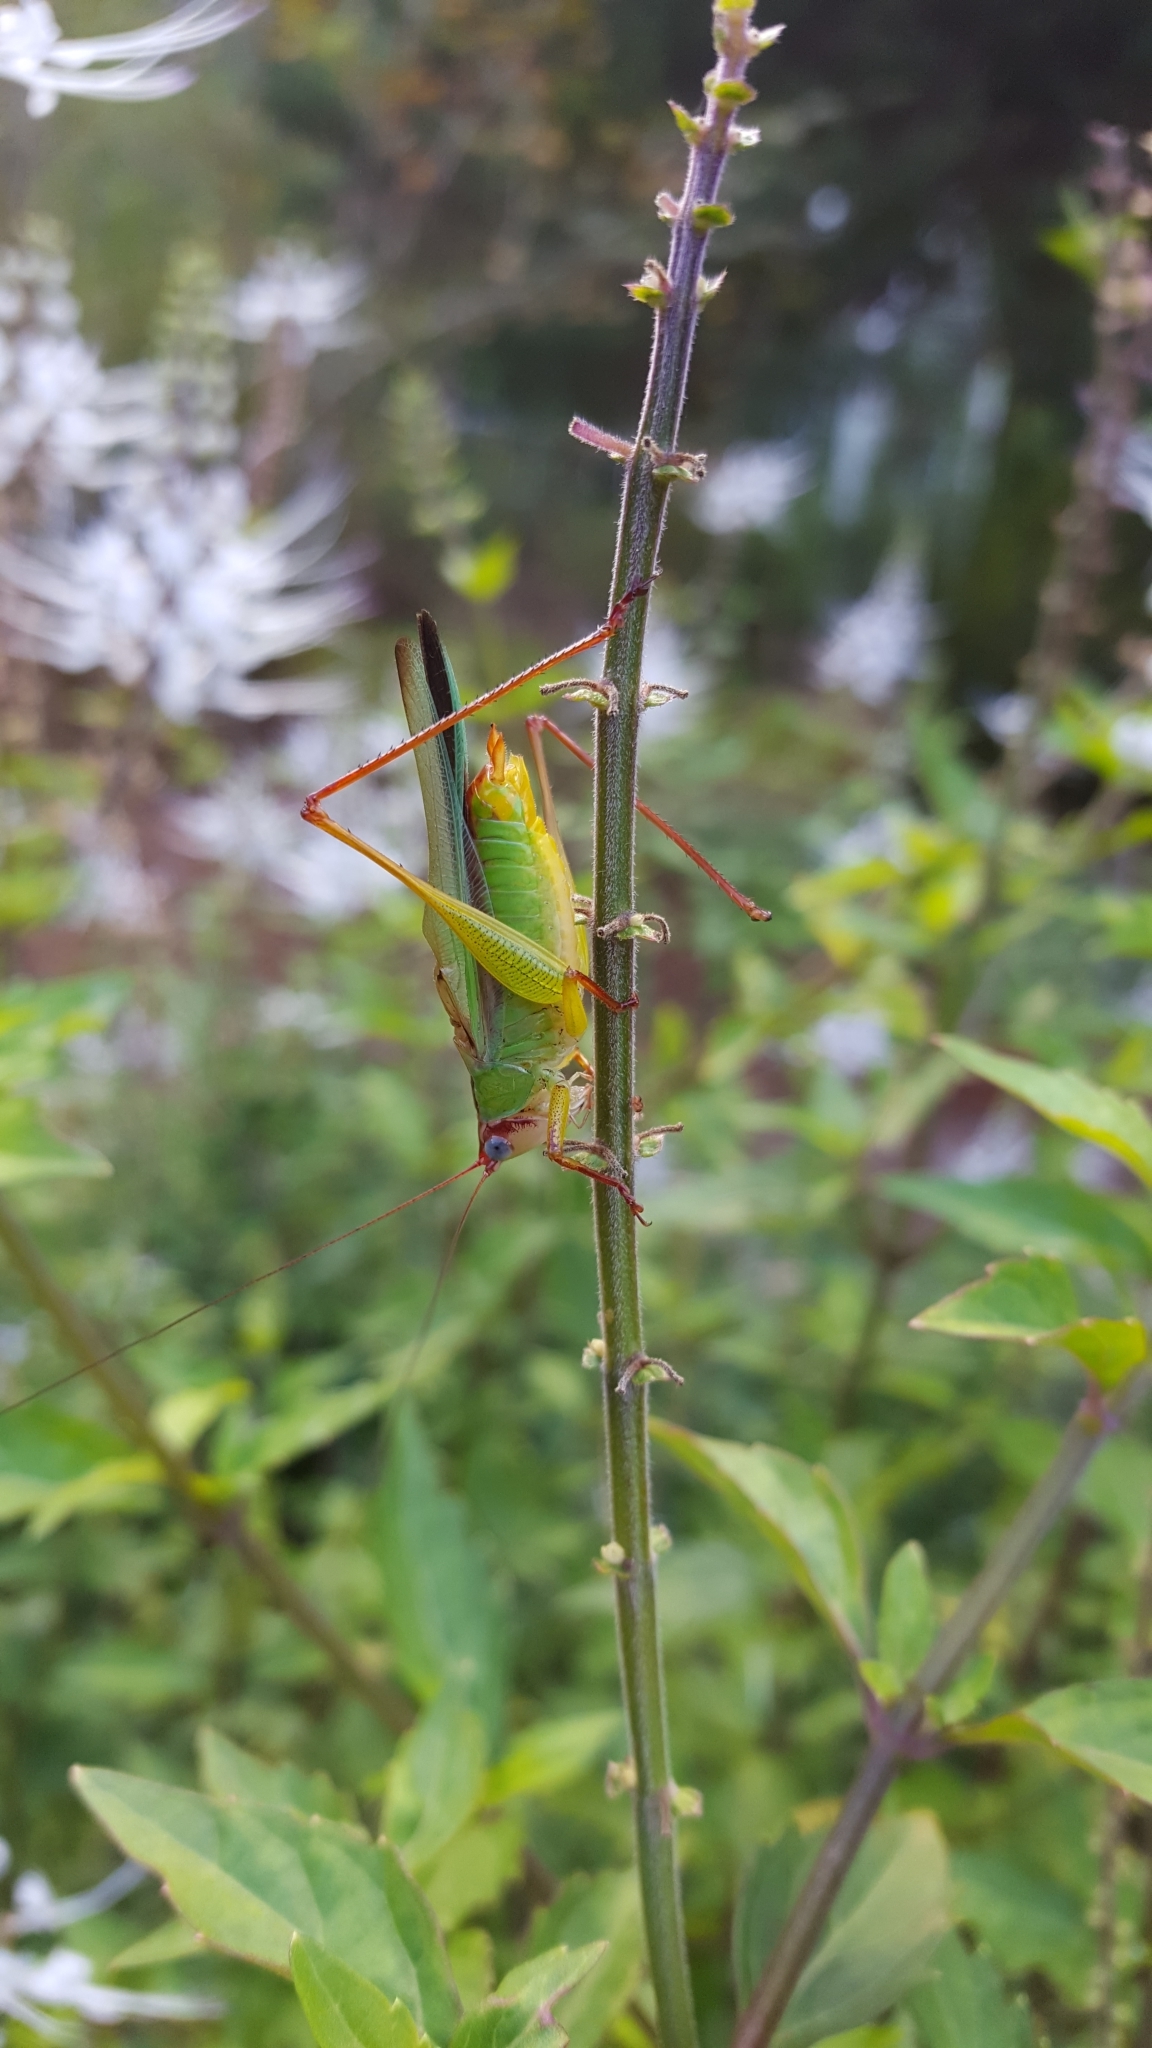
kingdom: Animalia
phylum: Arthropoda
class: Insecta
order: Orthoptera
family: Tettigoniidae
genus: Orchelimum
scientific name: Orchelimum pulchellum
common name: Handsome meadow katydid
